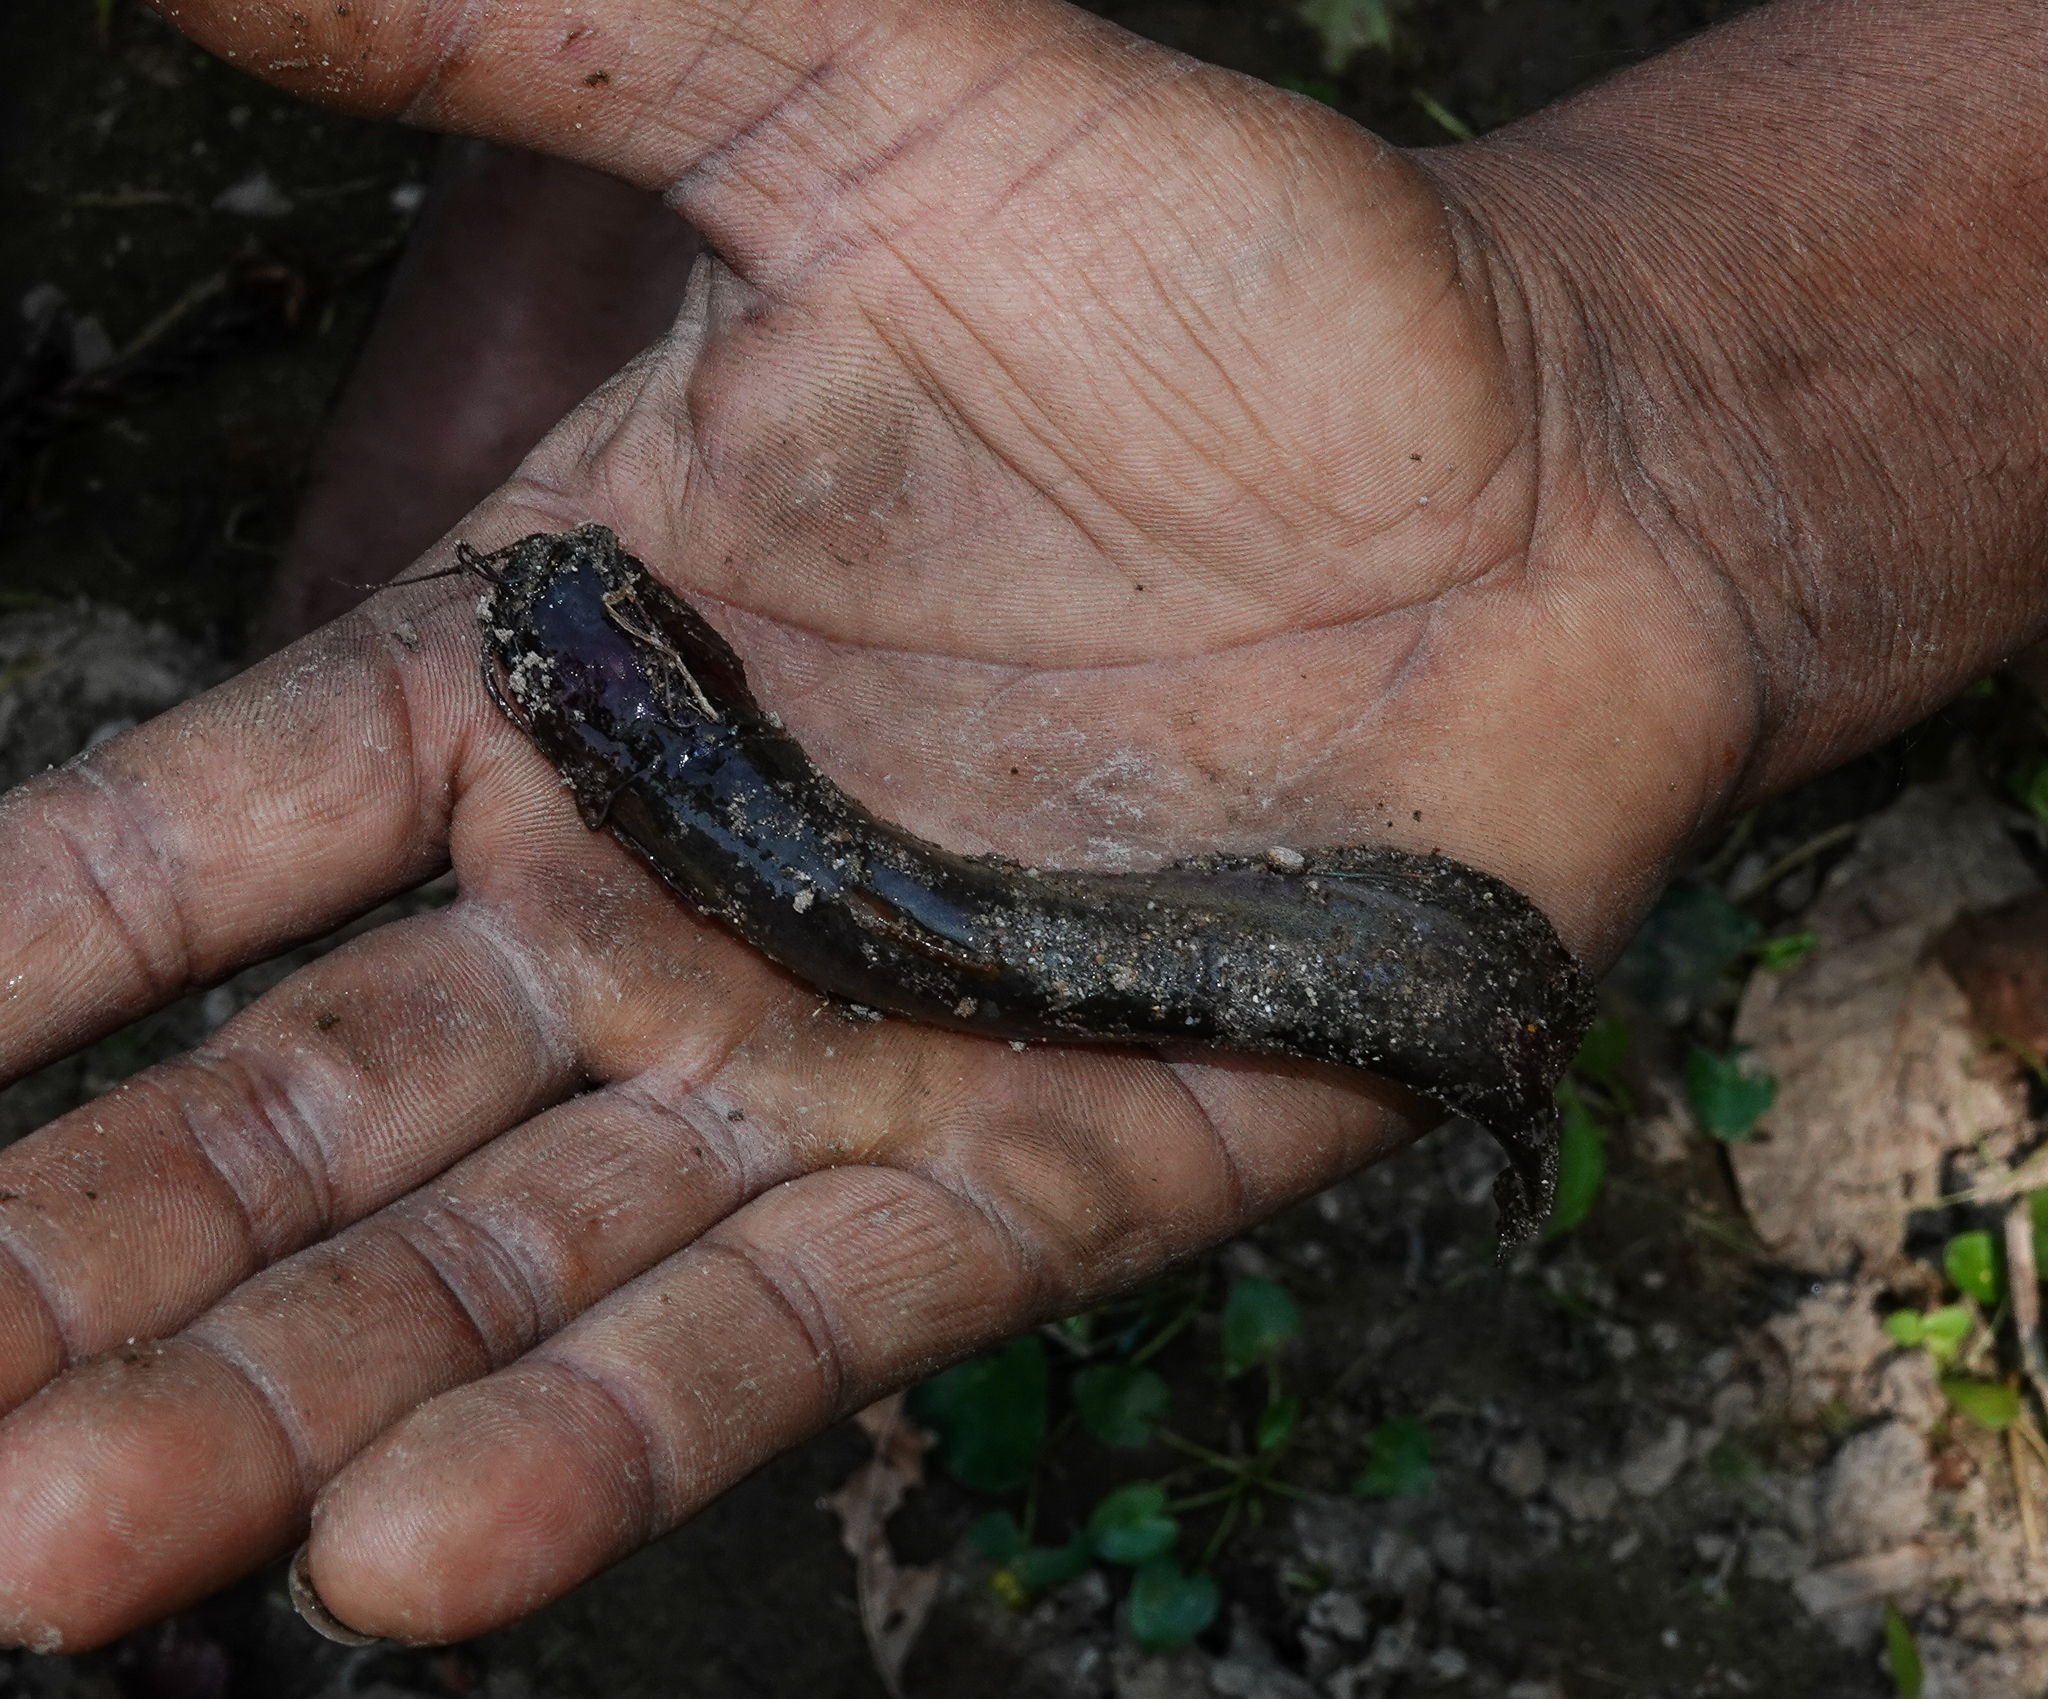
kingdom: Animalia
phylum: Chordata
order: Siluriformes
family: Heteropneustidae
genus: Heteropneustes
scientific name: Heteropneustes fossilis
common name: Stinging catfish
